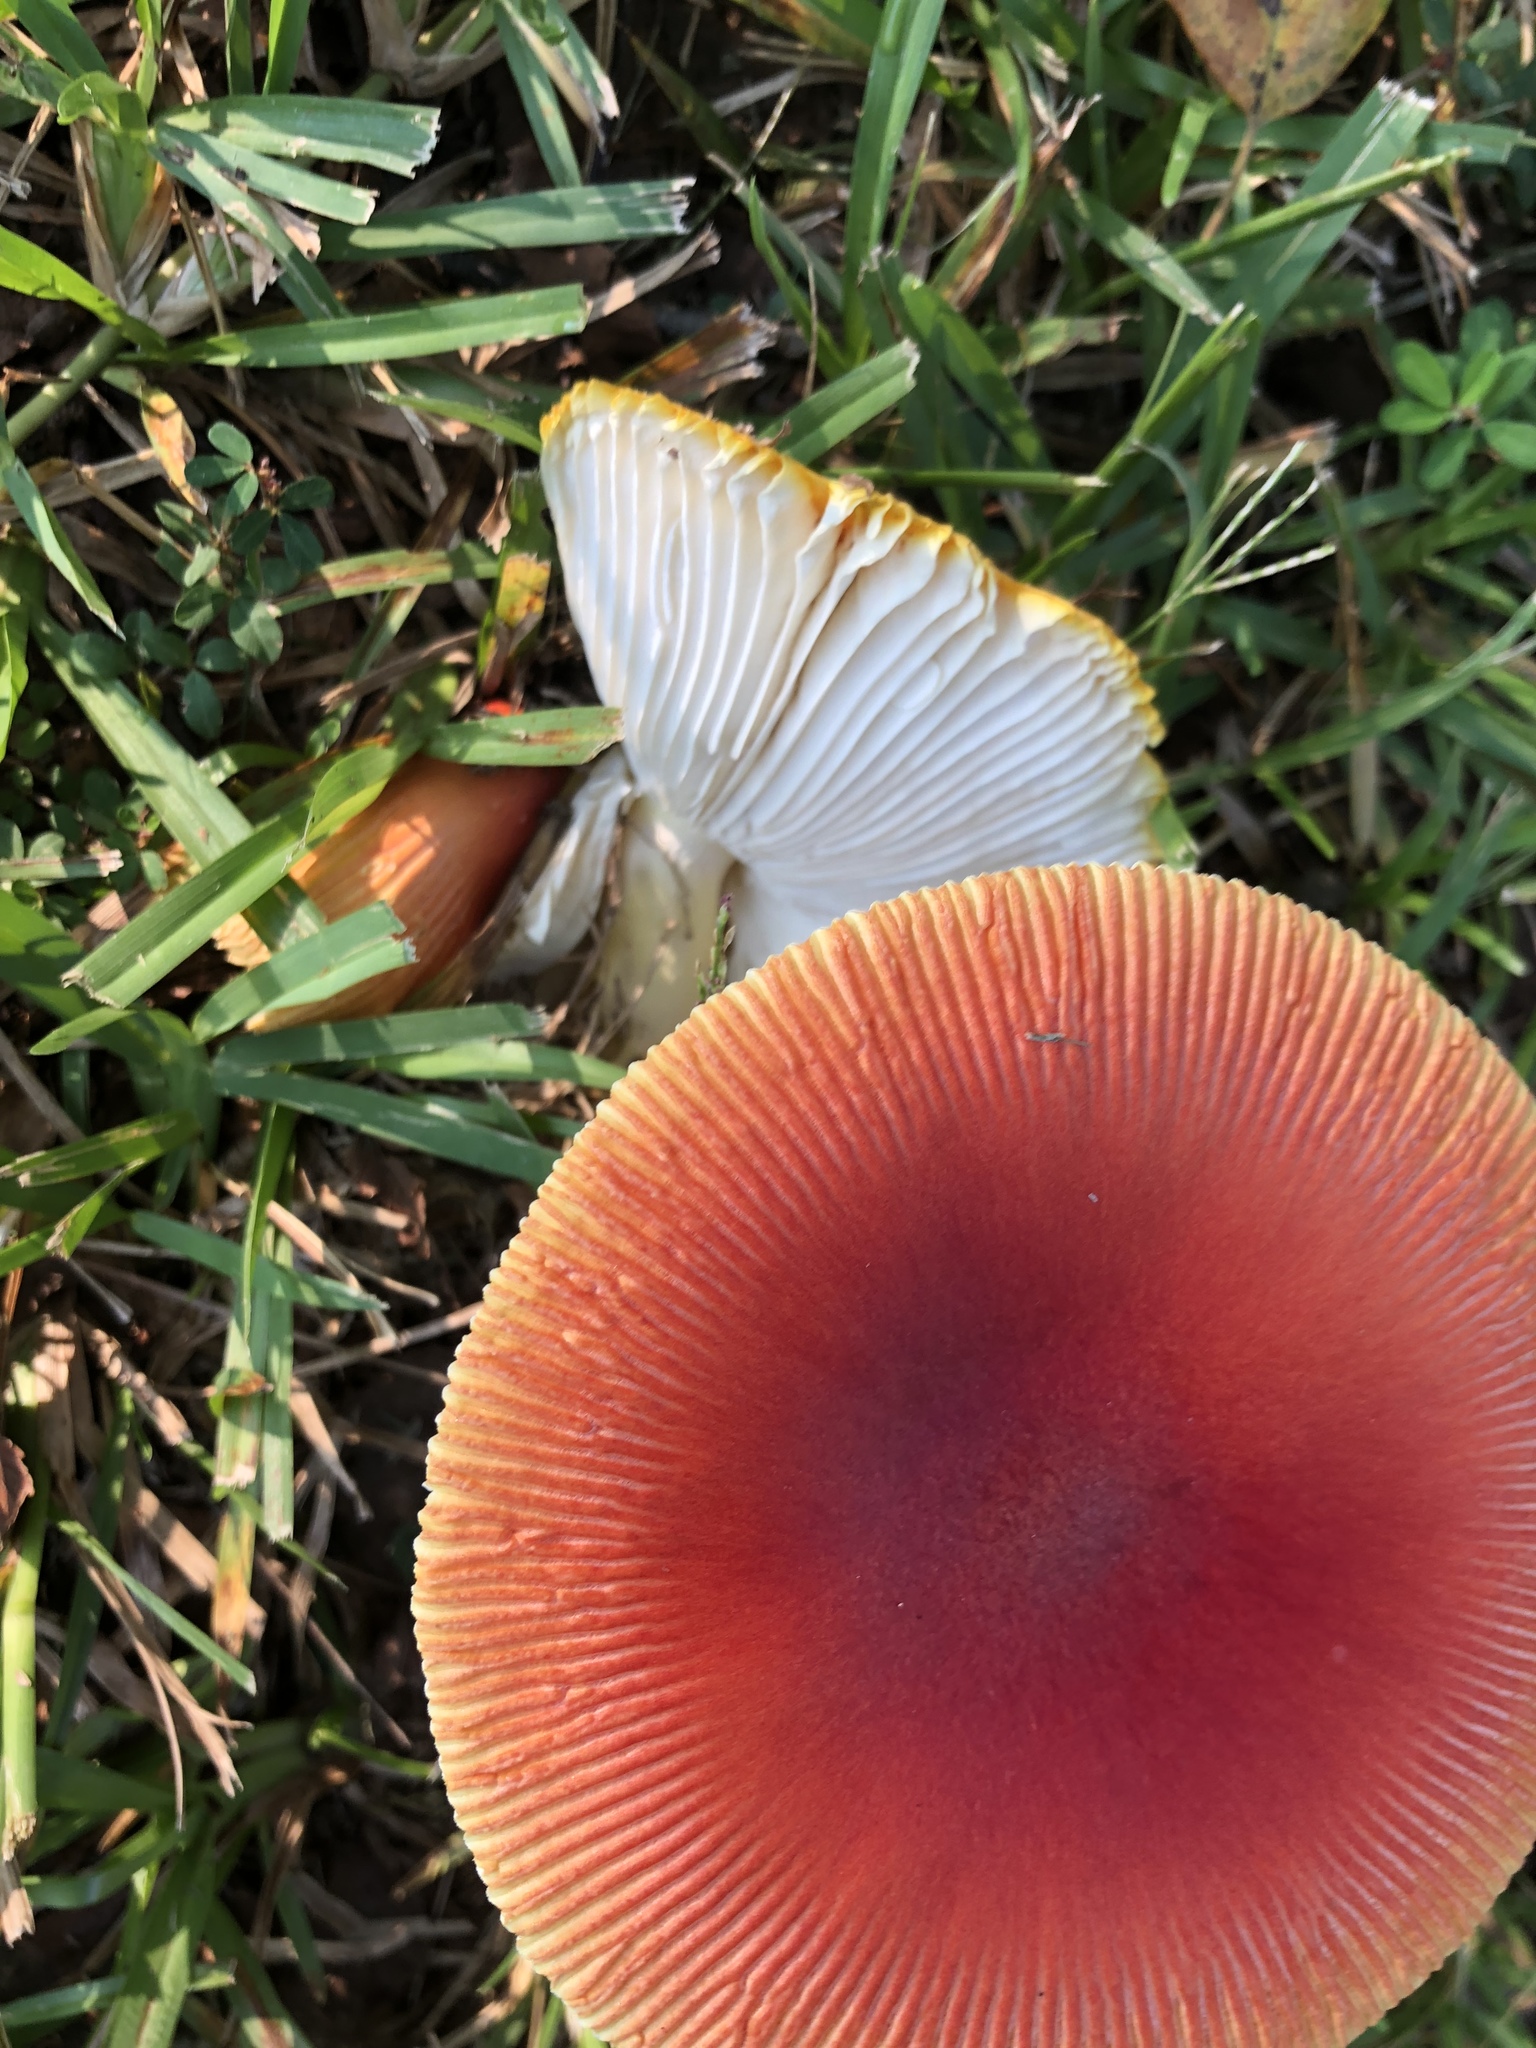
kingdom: Fungi
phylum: Basidiomycota
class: Agaricomycetes
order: Agaricales
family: Amanitaceae
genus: Amanita
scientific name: Amanita jacksonii
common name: Jackson's slender caesar
